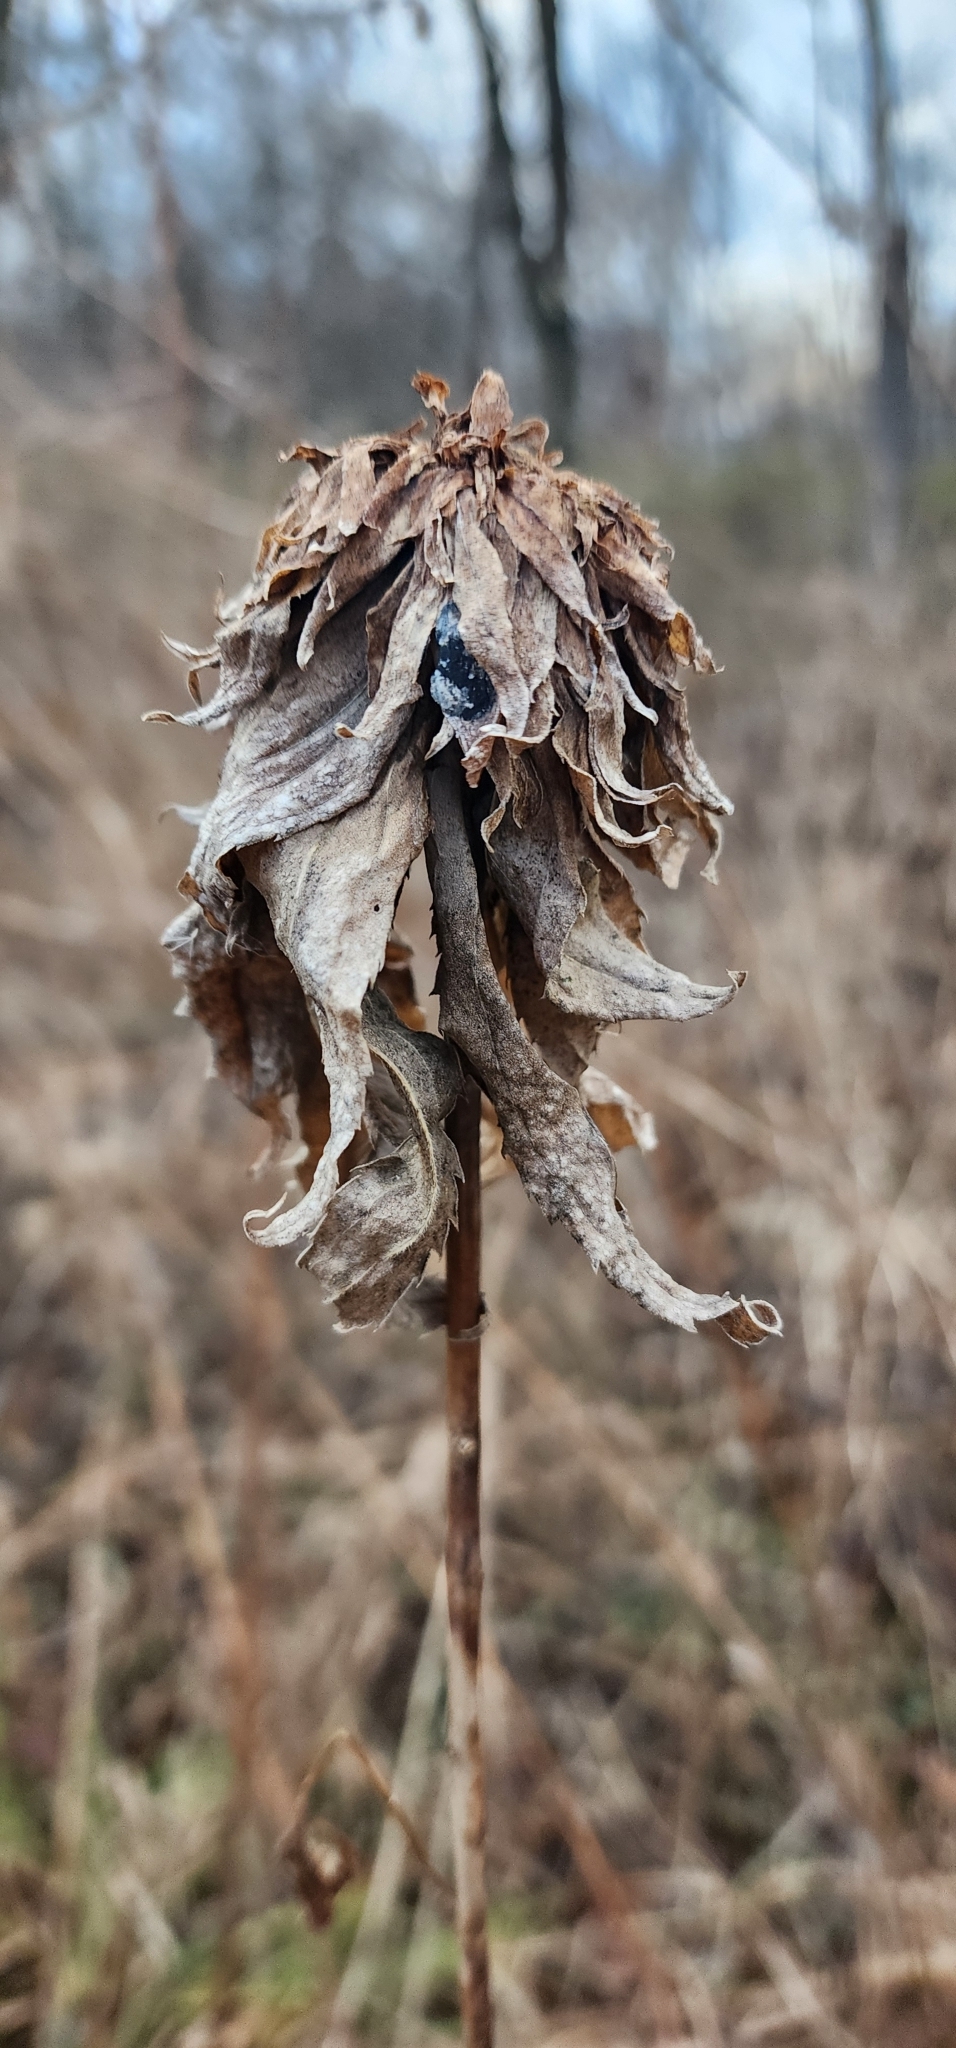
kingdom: Animalia
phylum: Arthropoda
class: Insecta
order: Diptera
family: Cecidomyiidae
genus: Rhopalomyia
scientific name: Rhopalomyia solidaginis
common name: Goldenrod bunch gall midge
